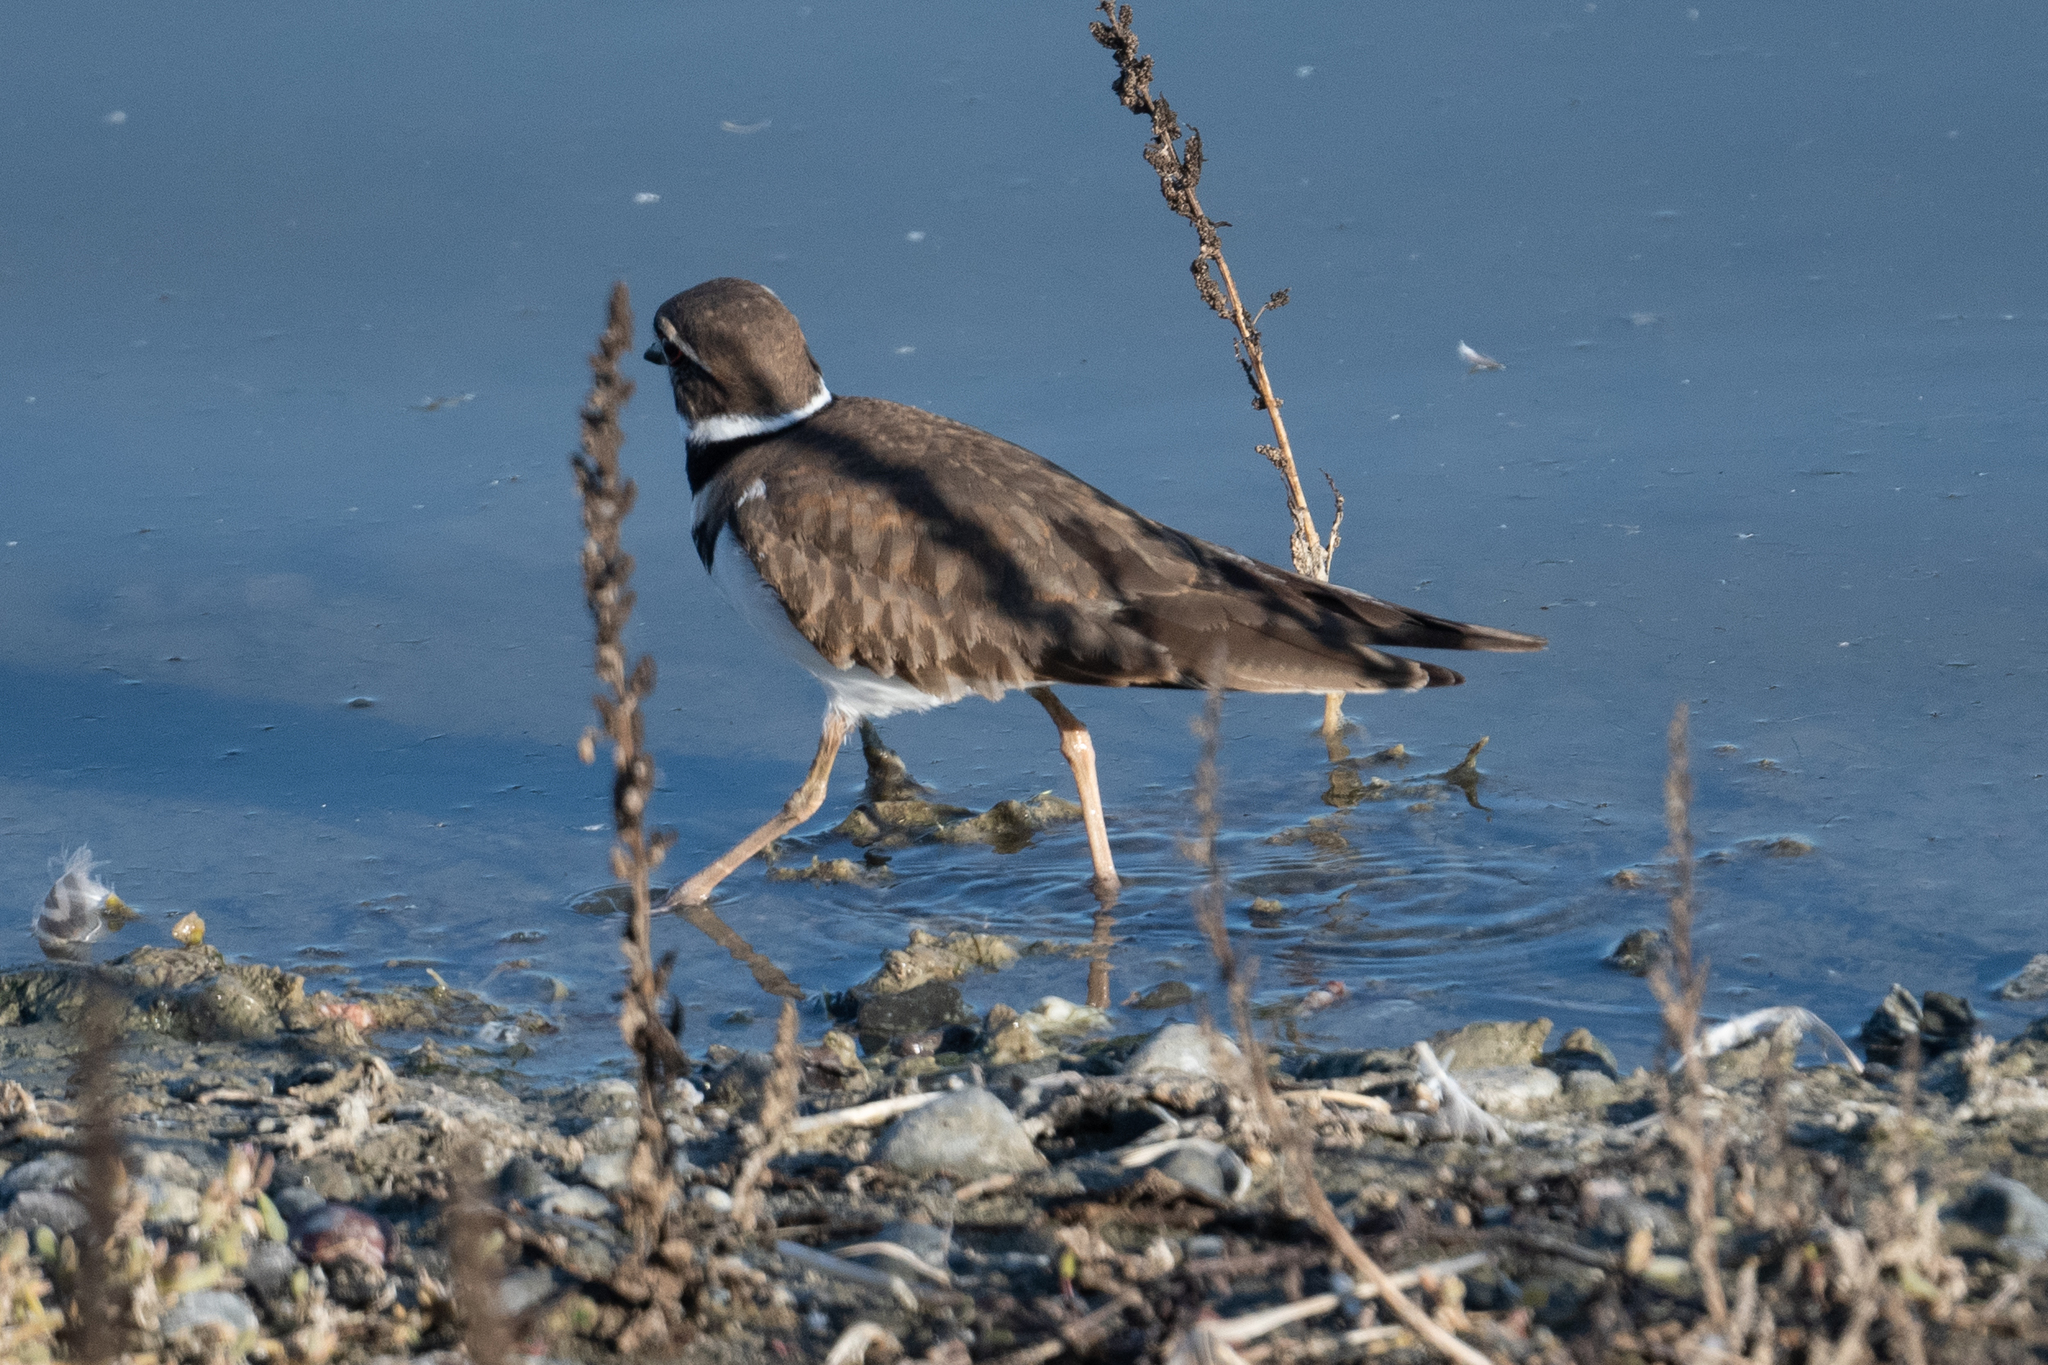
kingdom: Animalia
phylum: Chordata
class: Aves
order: Charadriiformes
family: Charadriidae
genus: Charadrius
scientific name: Charadrius vociferus
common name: Killdeer
